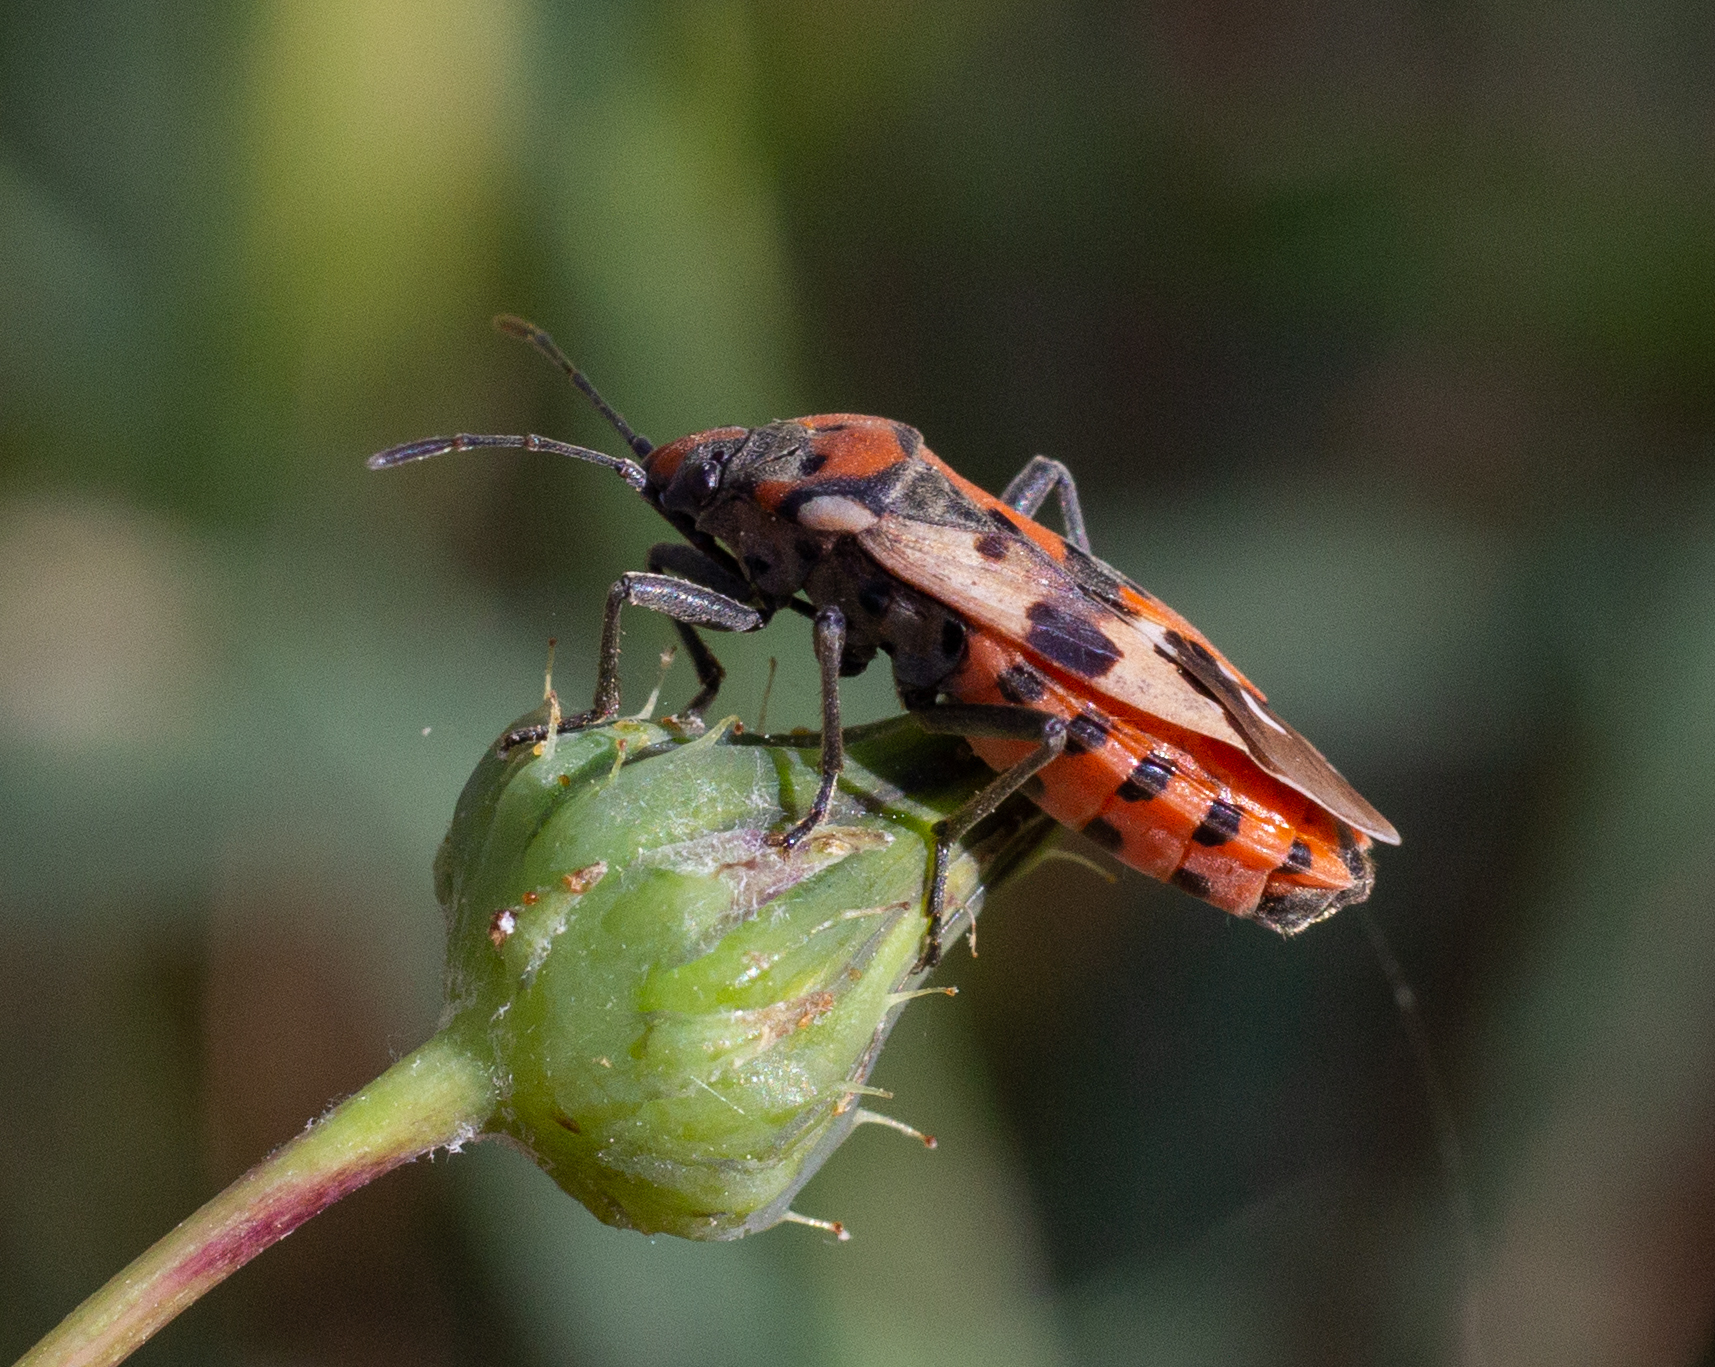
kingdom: Animalia
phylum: Arthropoda
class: Insecta
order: Hemiptera
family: Lygaeidae
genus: Lygaeus
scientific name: Lygaeus equestris
